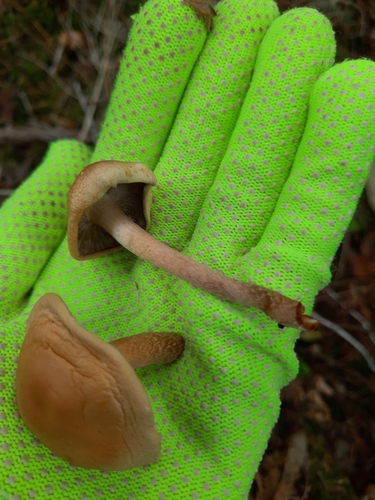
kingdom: Fungi
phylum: Basidiomycota
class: Agaricomycetes
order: Agaricales
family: Strophariaceae
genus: Hypholoma
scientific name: Hypholoma
